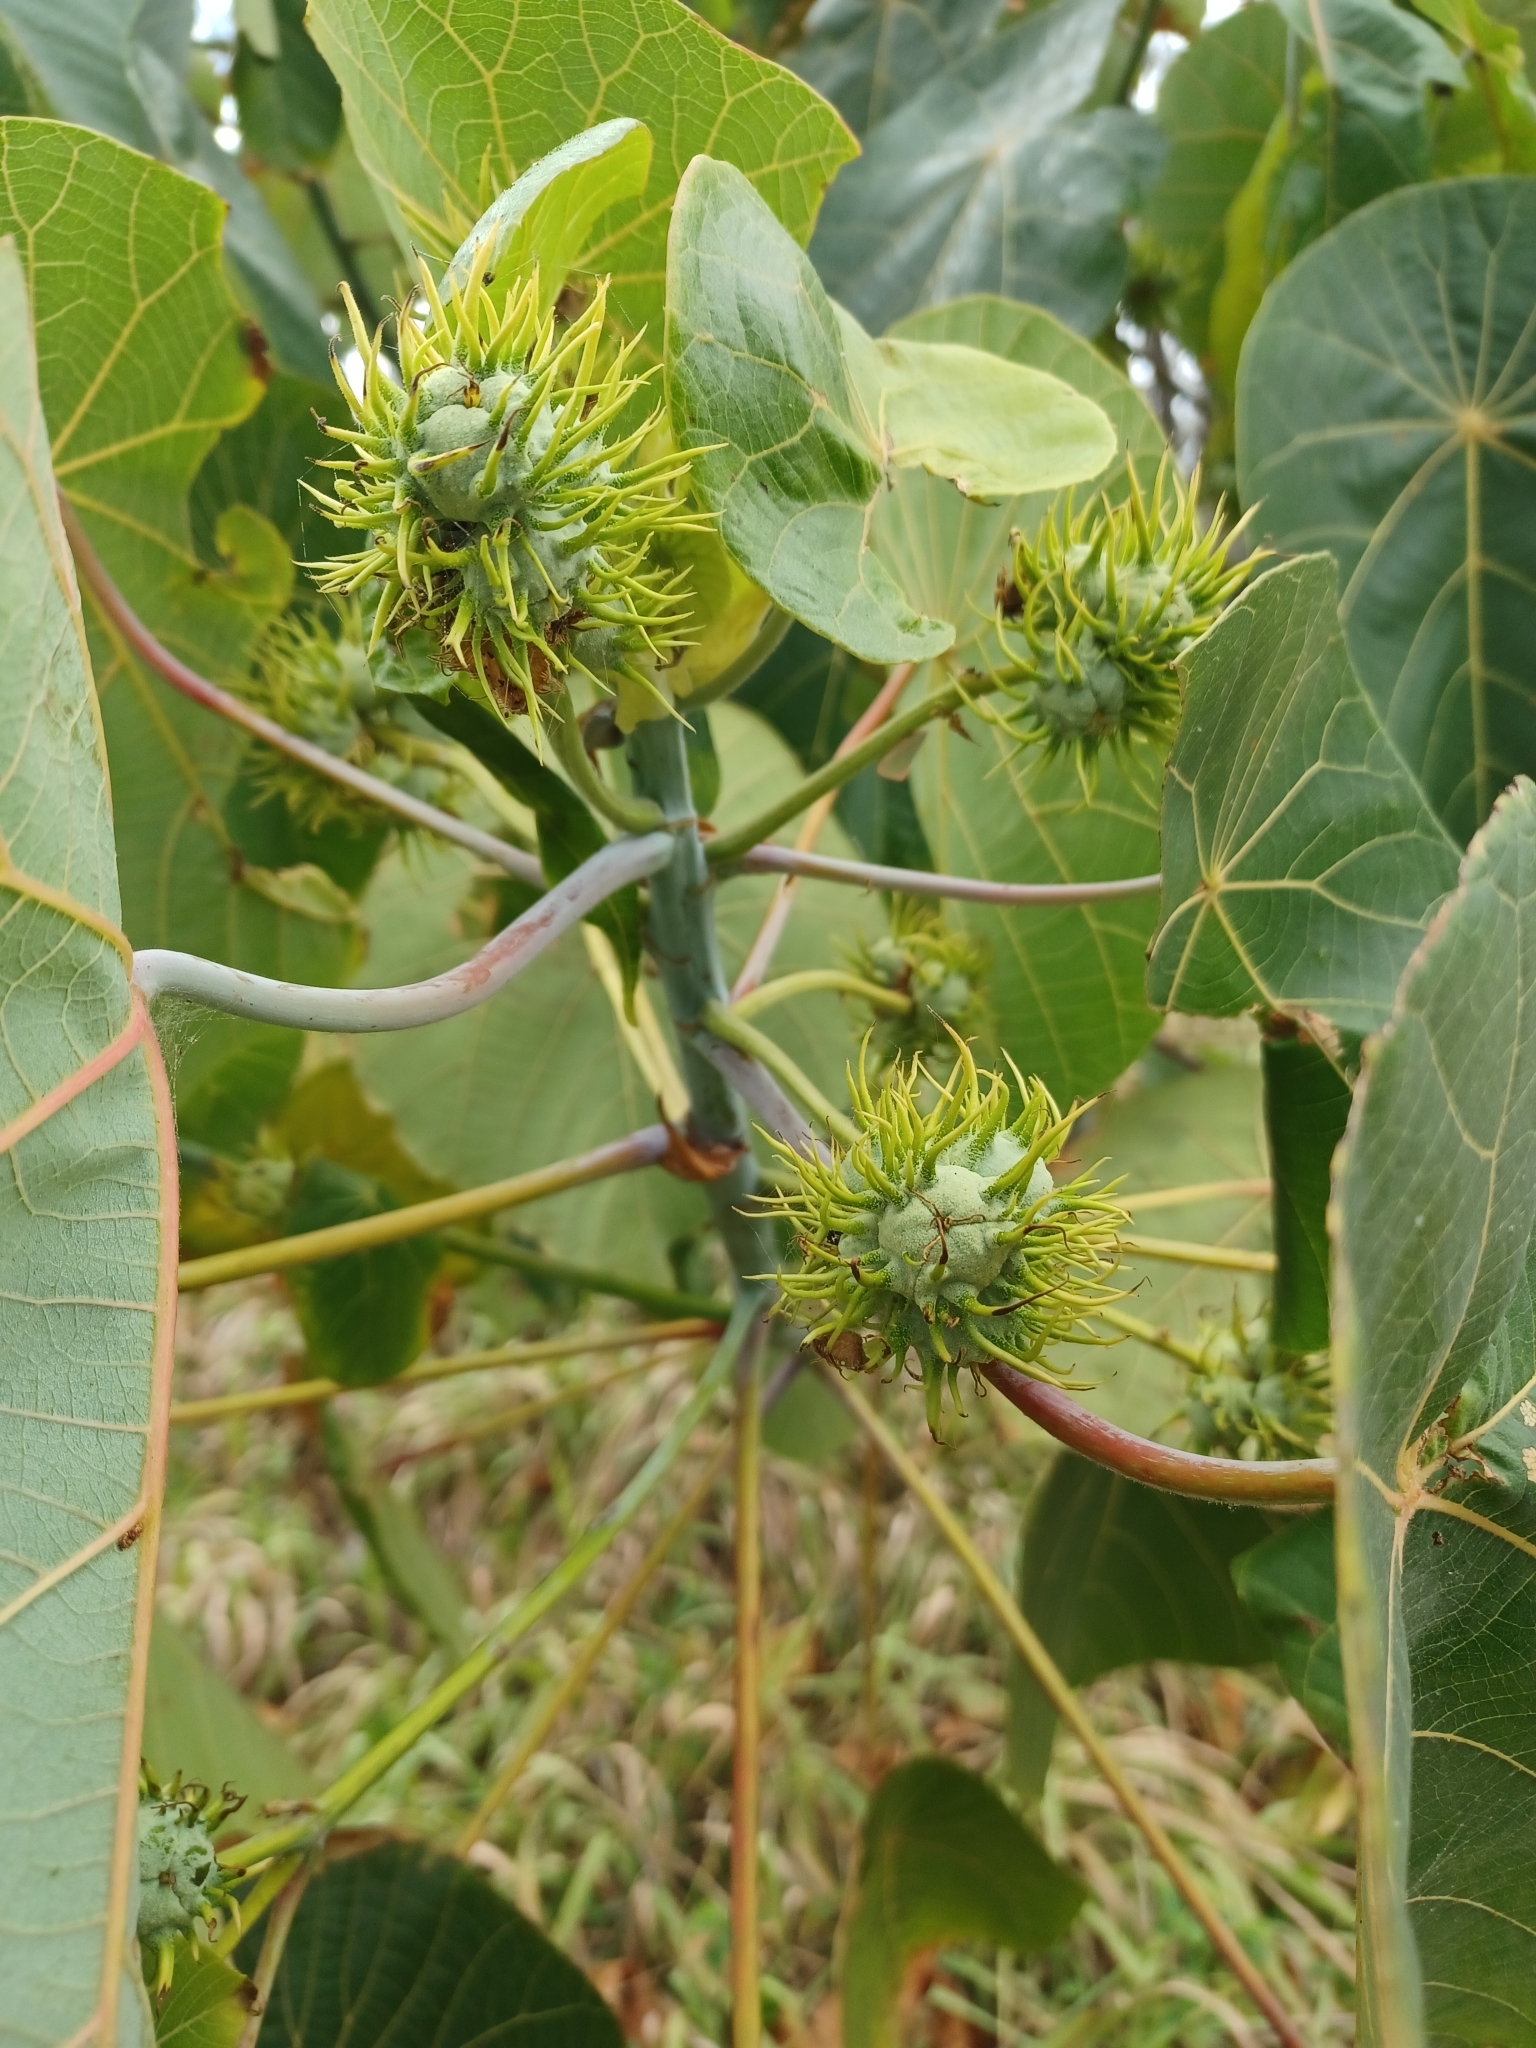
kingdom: Plantae
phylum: Tracheophyta
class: Magnoliopsida
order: Malpighiales
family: Euphorbiaceae
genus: Macaranga
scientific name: Macaranga tanarius
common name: Parasol leaf tree
